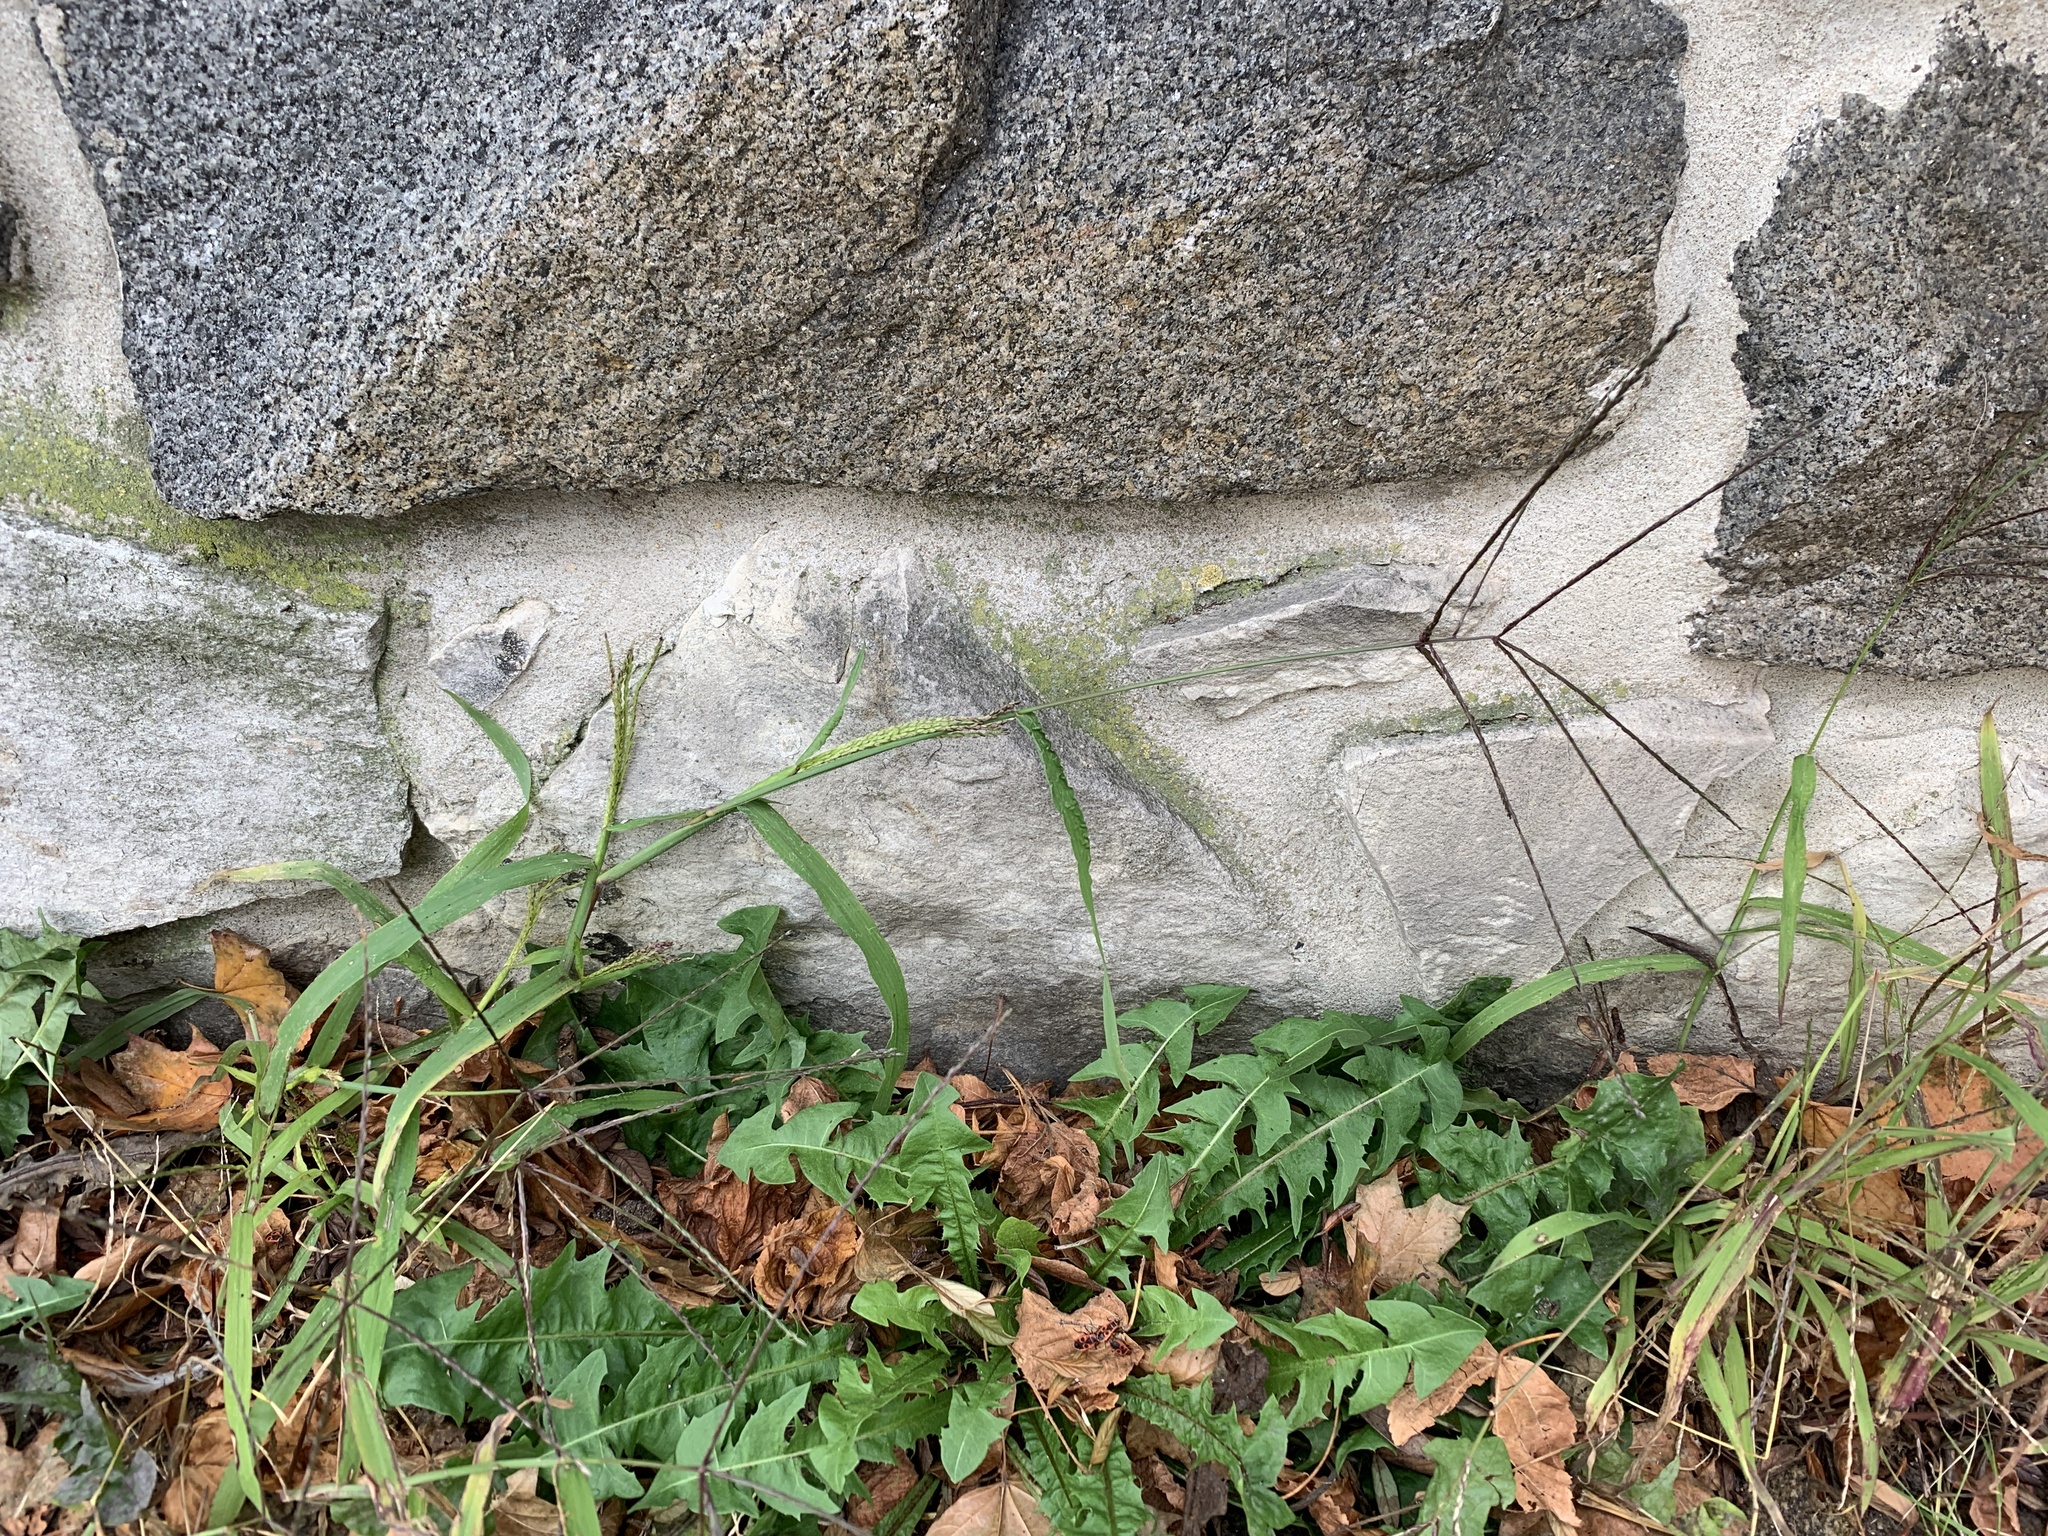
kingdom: Plantae
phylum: Tracheophyta
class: Liliopsida
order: Poales
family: Poaceae
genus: Digitaria
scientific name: Digitaria sanguinalis
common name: Hairy crabgrass
